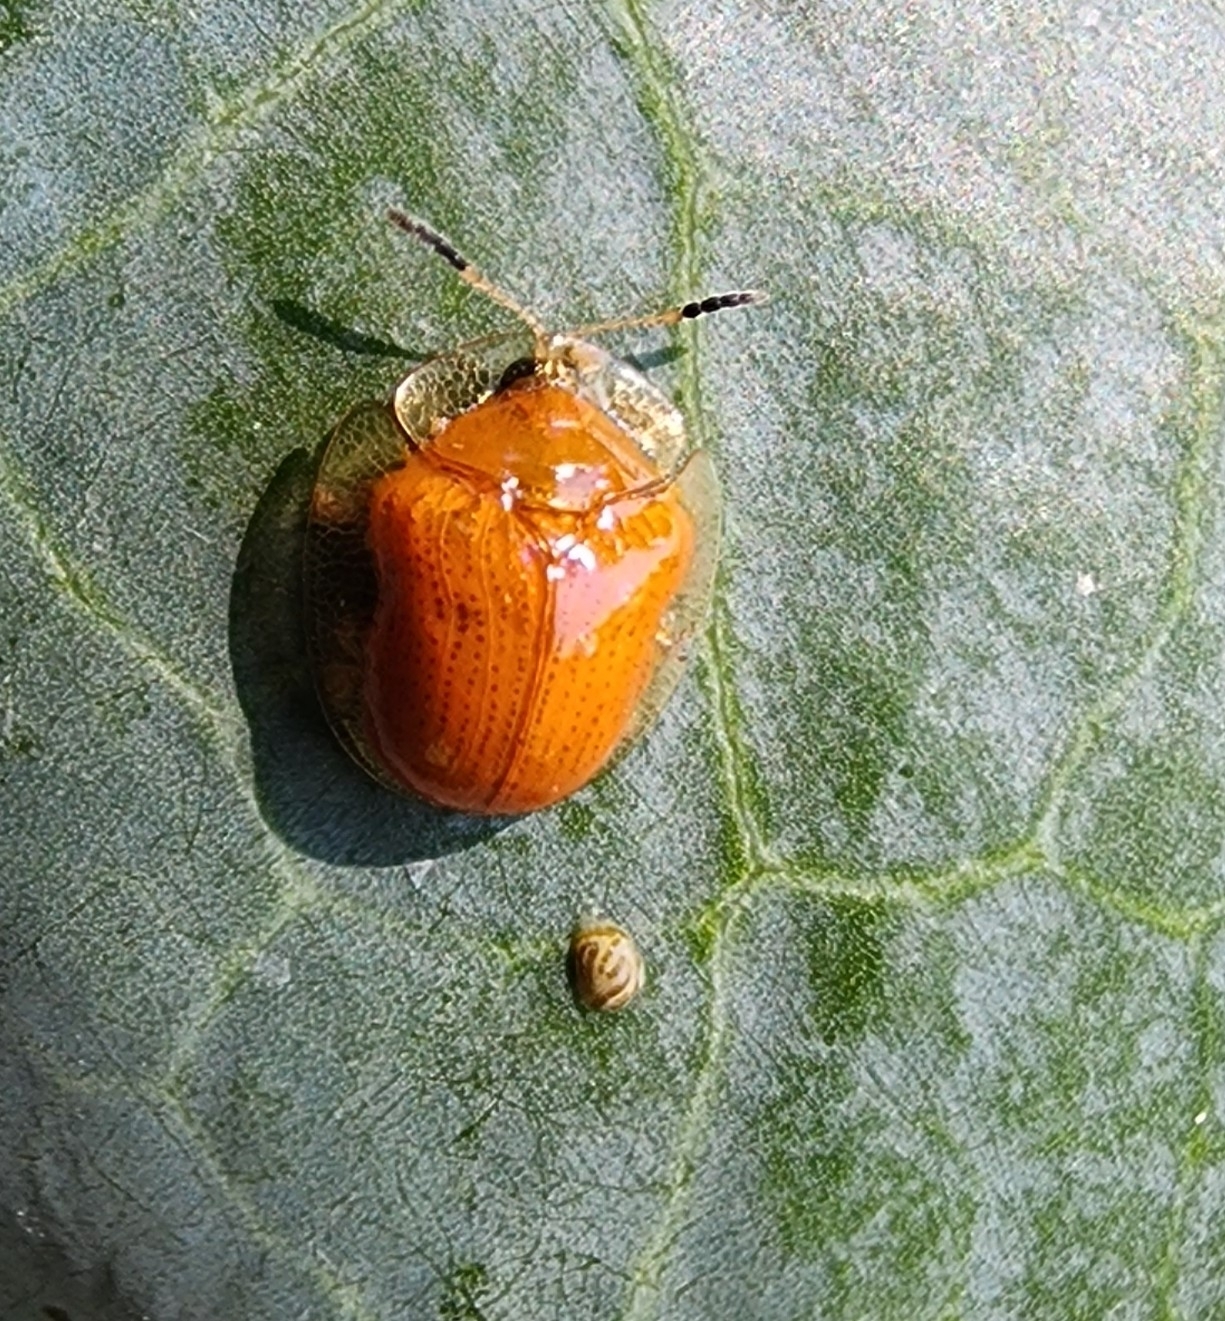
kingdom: Animalia
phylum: Arthropoda
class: Insecta
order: Coleoptera
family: Chrysomelidae
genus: Charidotella
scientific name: Charidotella sexpunctata
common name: Golden tortoise beetle
